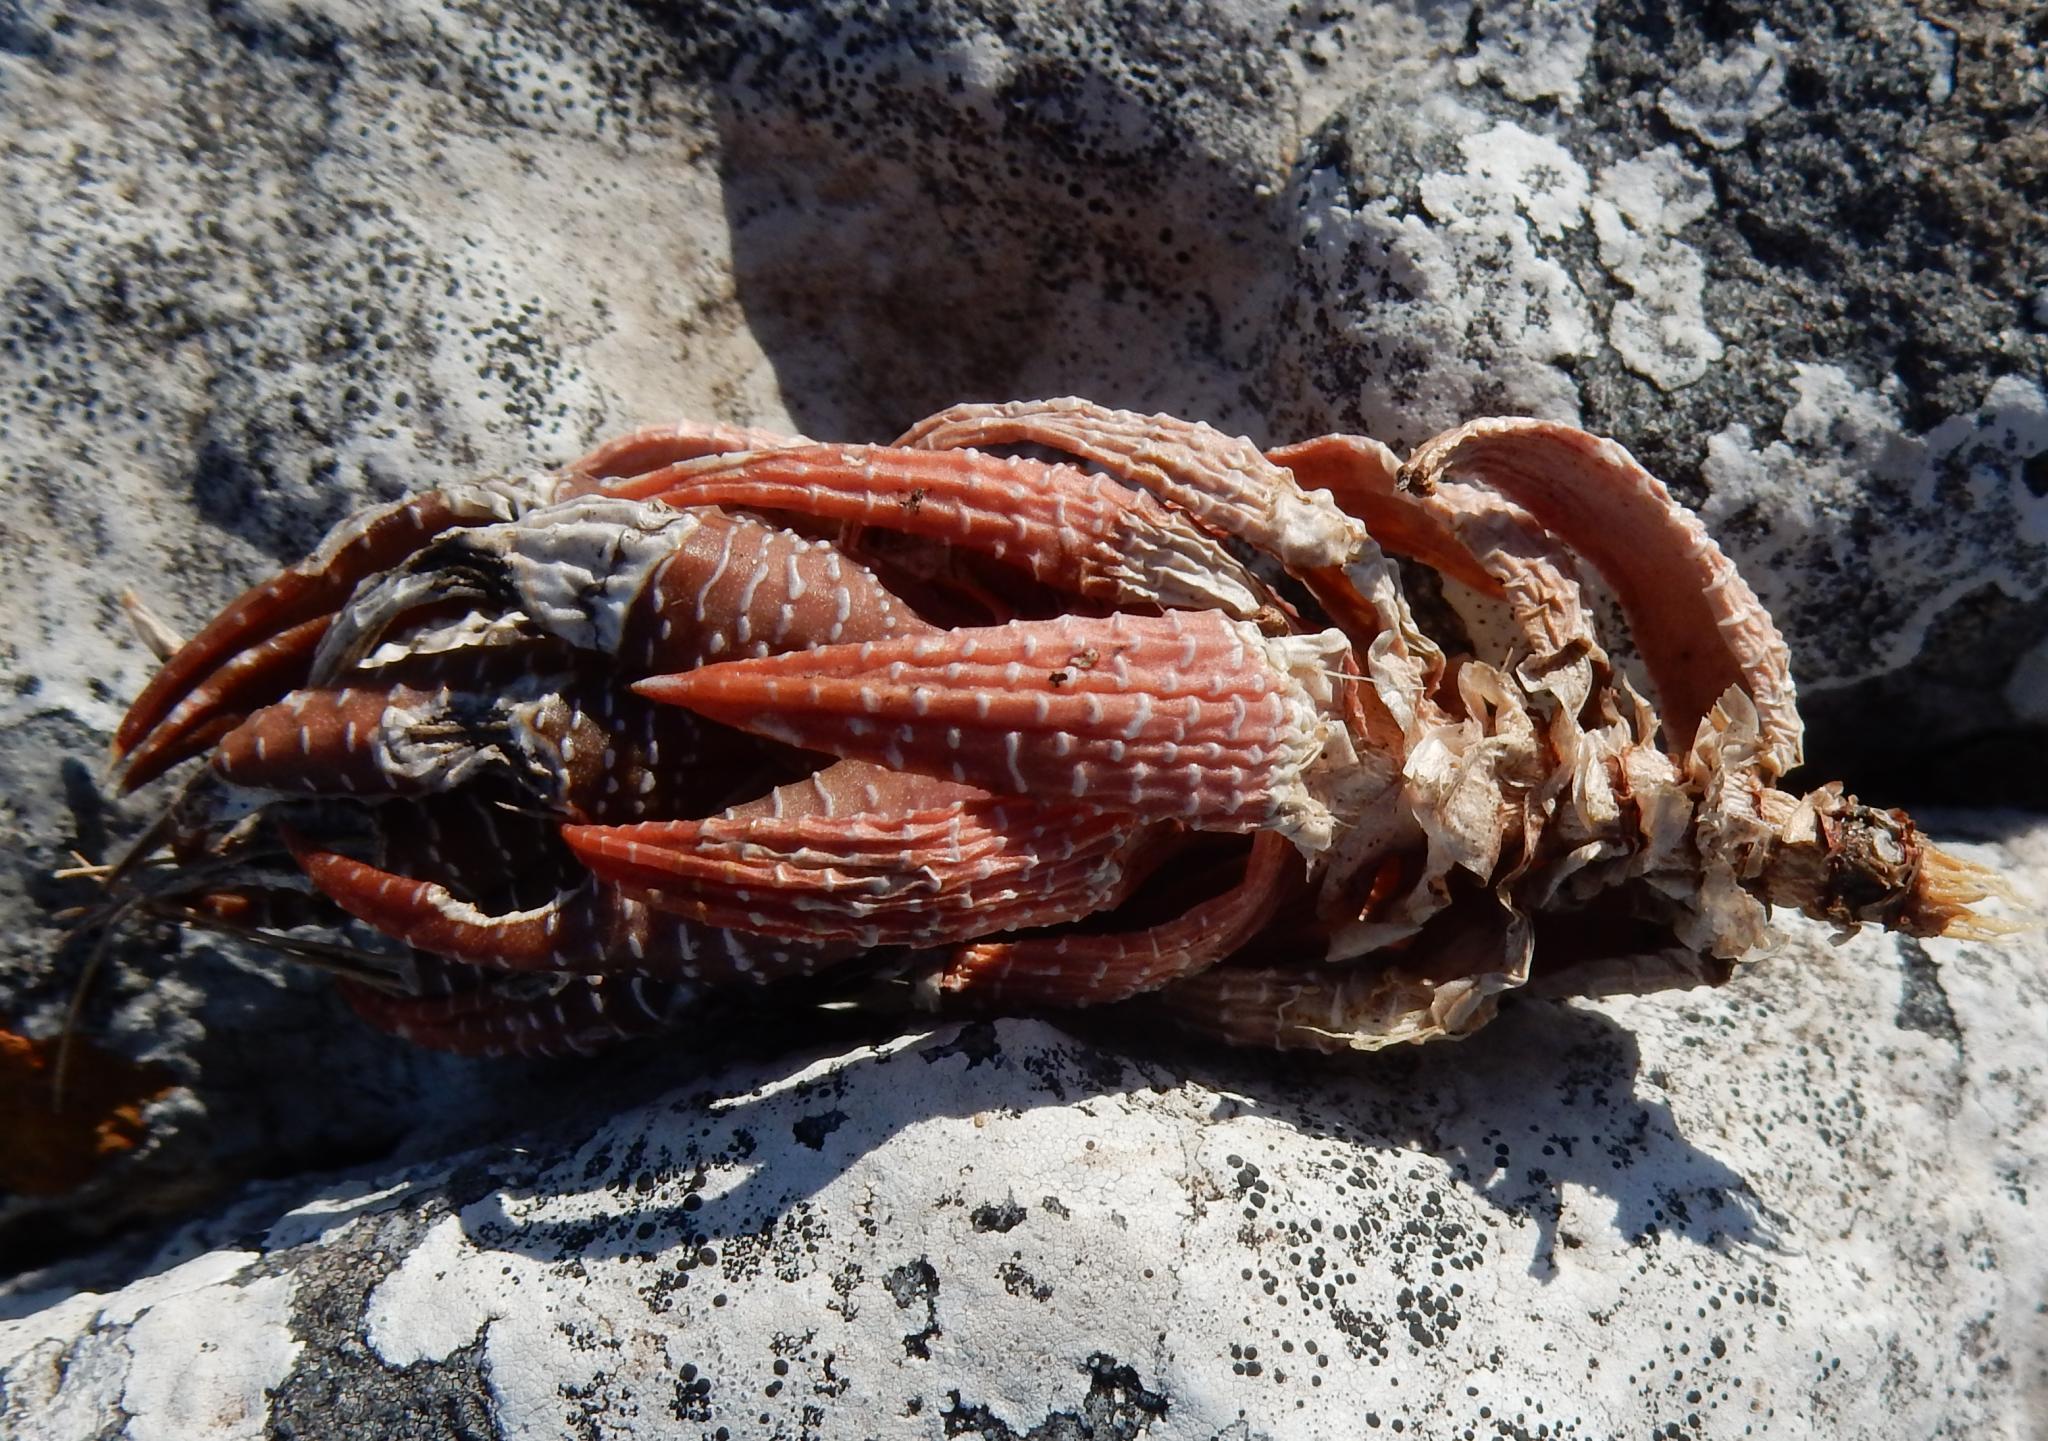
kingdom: Plantae
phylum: Tracheophyta
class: Liliopsida
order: Asparagales
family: Asphodelaceae
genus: Haworthiopsis
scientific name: Haworthiopsis coarctata
